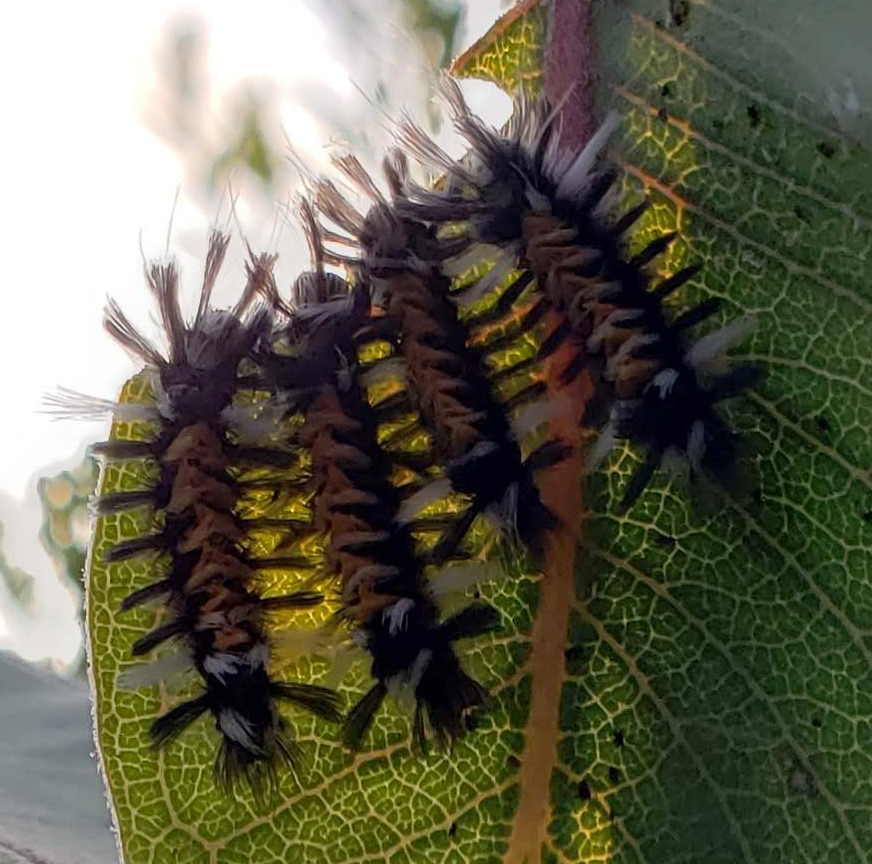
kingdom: Animalia
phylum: Arthropoda
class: Insecta
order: Lepidoptera
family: Erebidae
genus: Euchaetes
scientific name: Euchaetes egle
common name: Milkweed tussock moth
